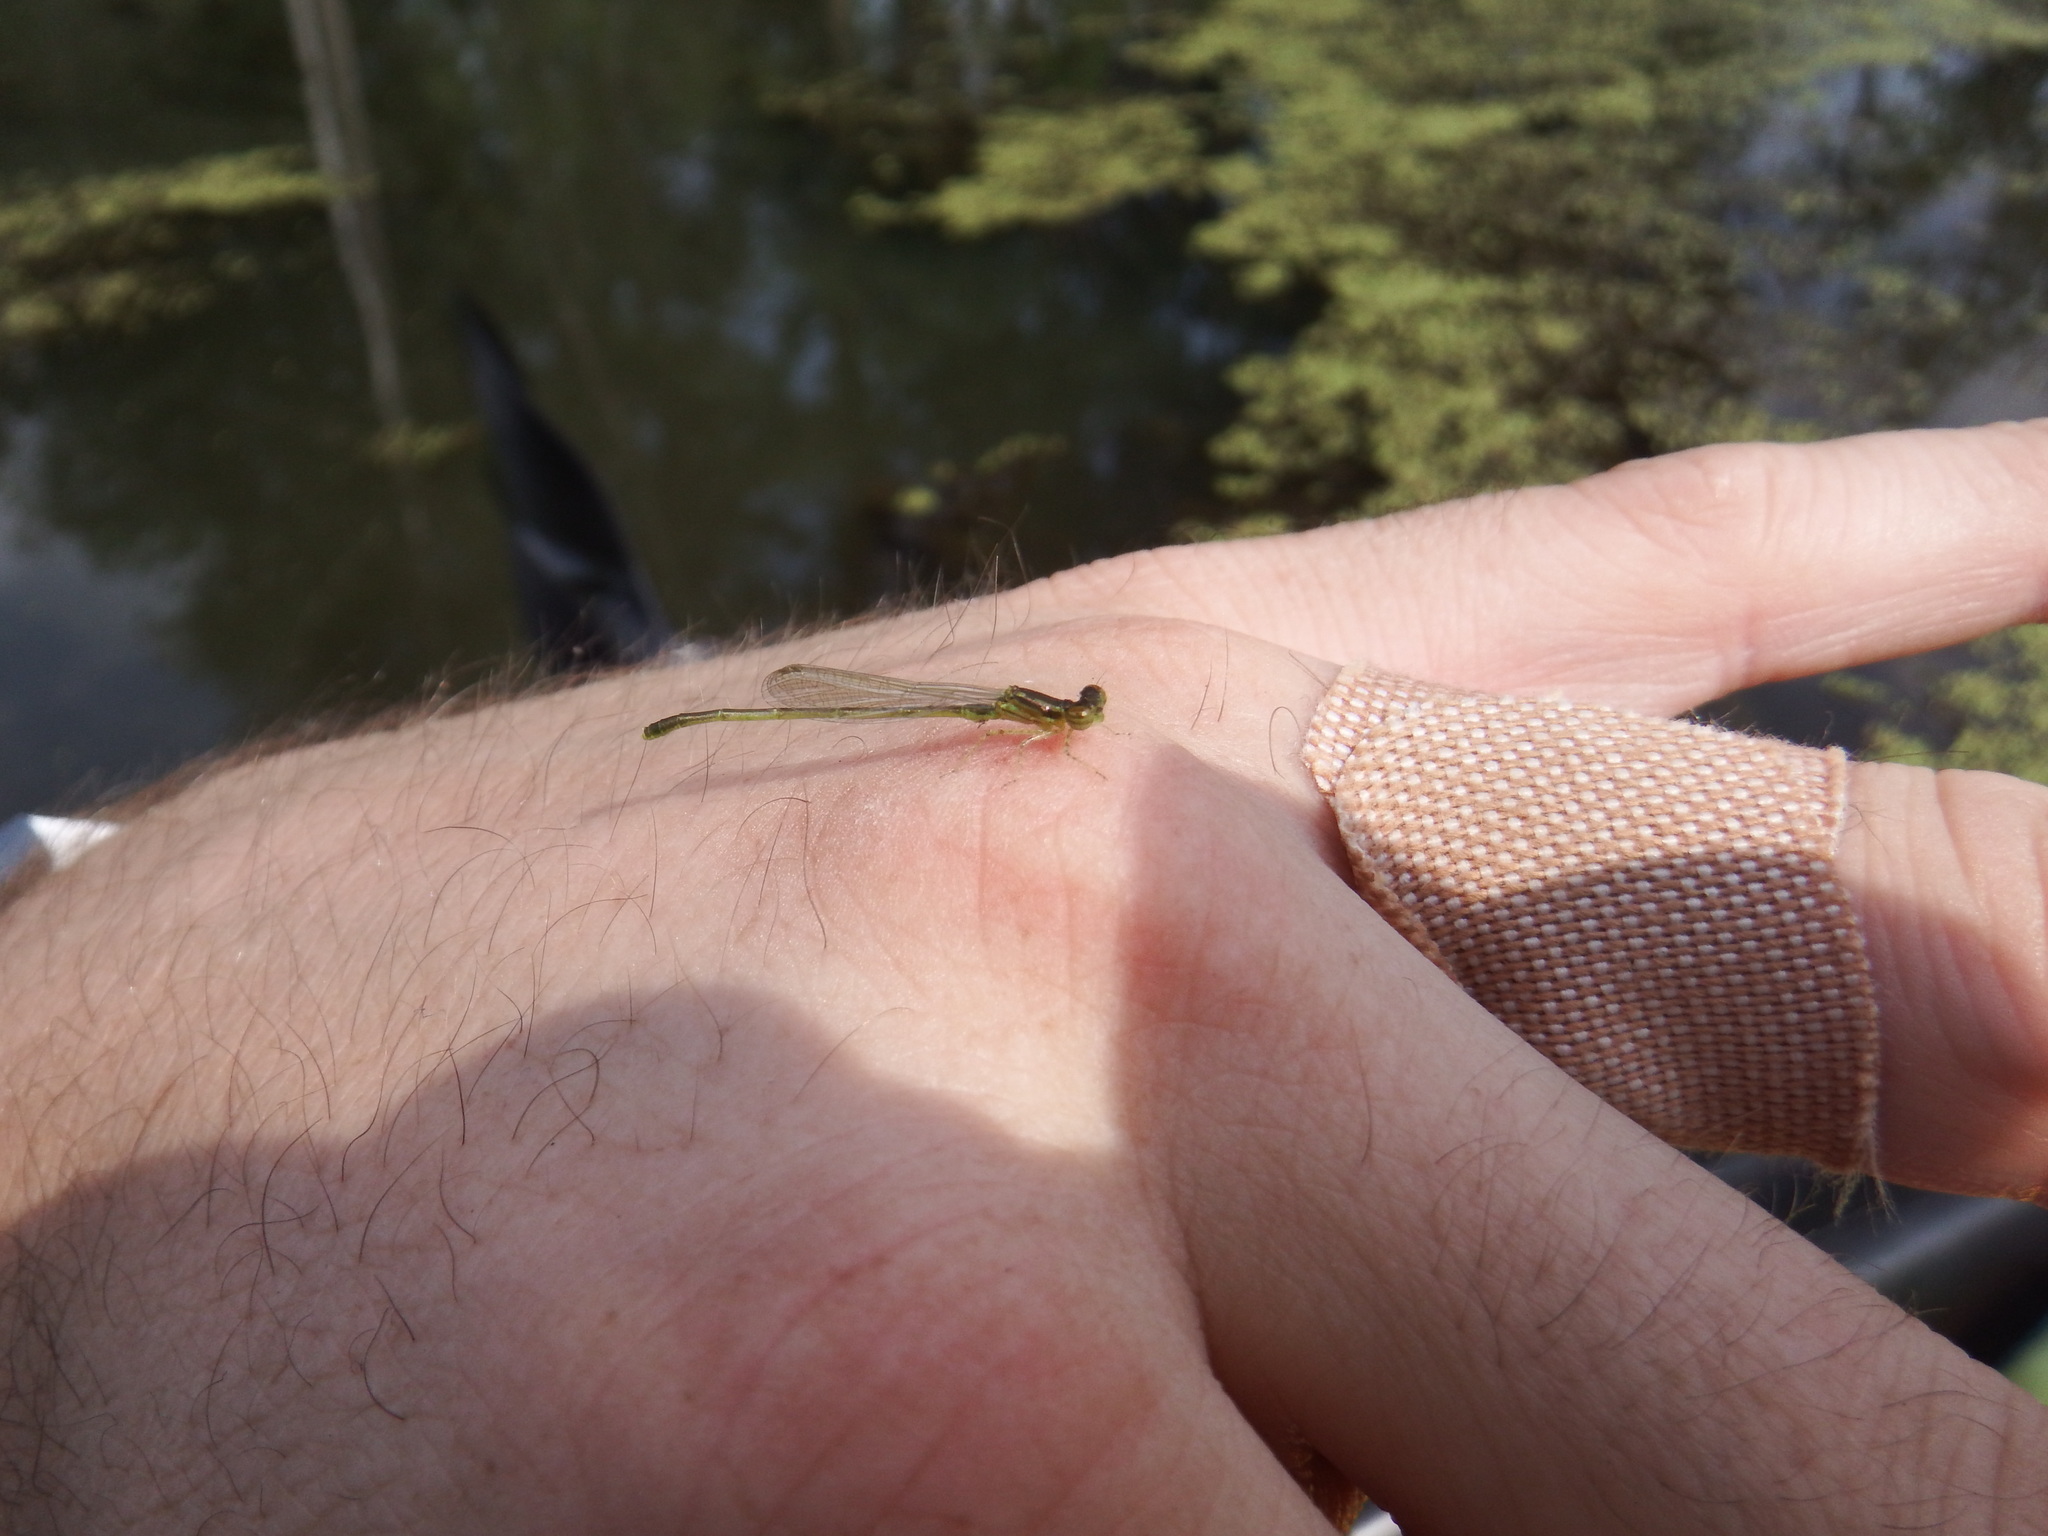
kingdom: Animalia
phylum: Arthropoda
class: Insecta
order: Odonata
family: Coenagrionidae
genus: Ischnura
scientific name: Ischnura posita
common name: Fragile forktail
